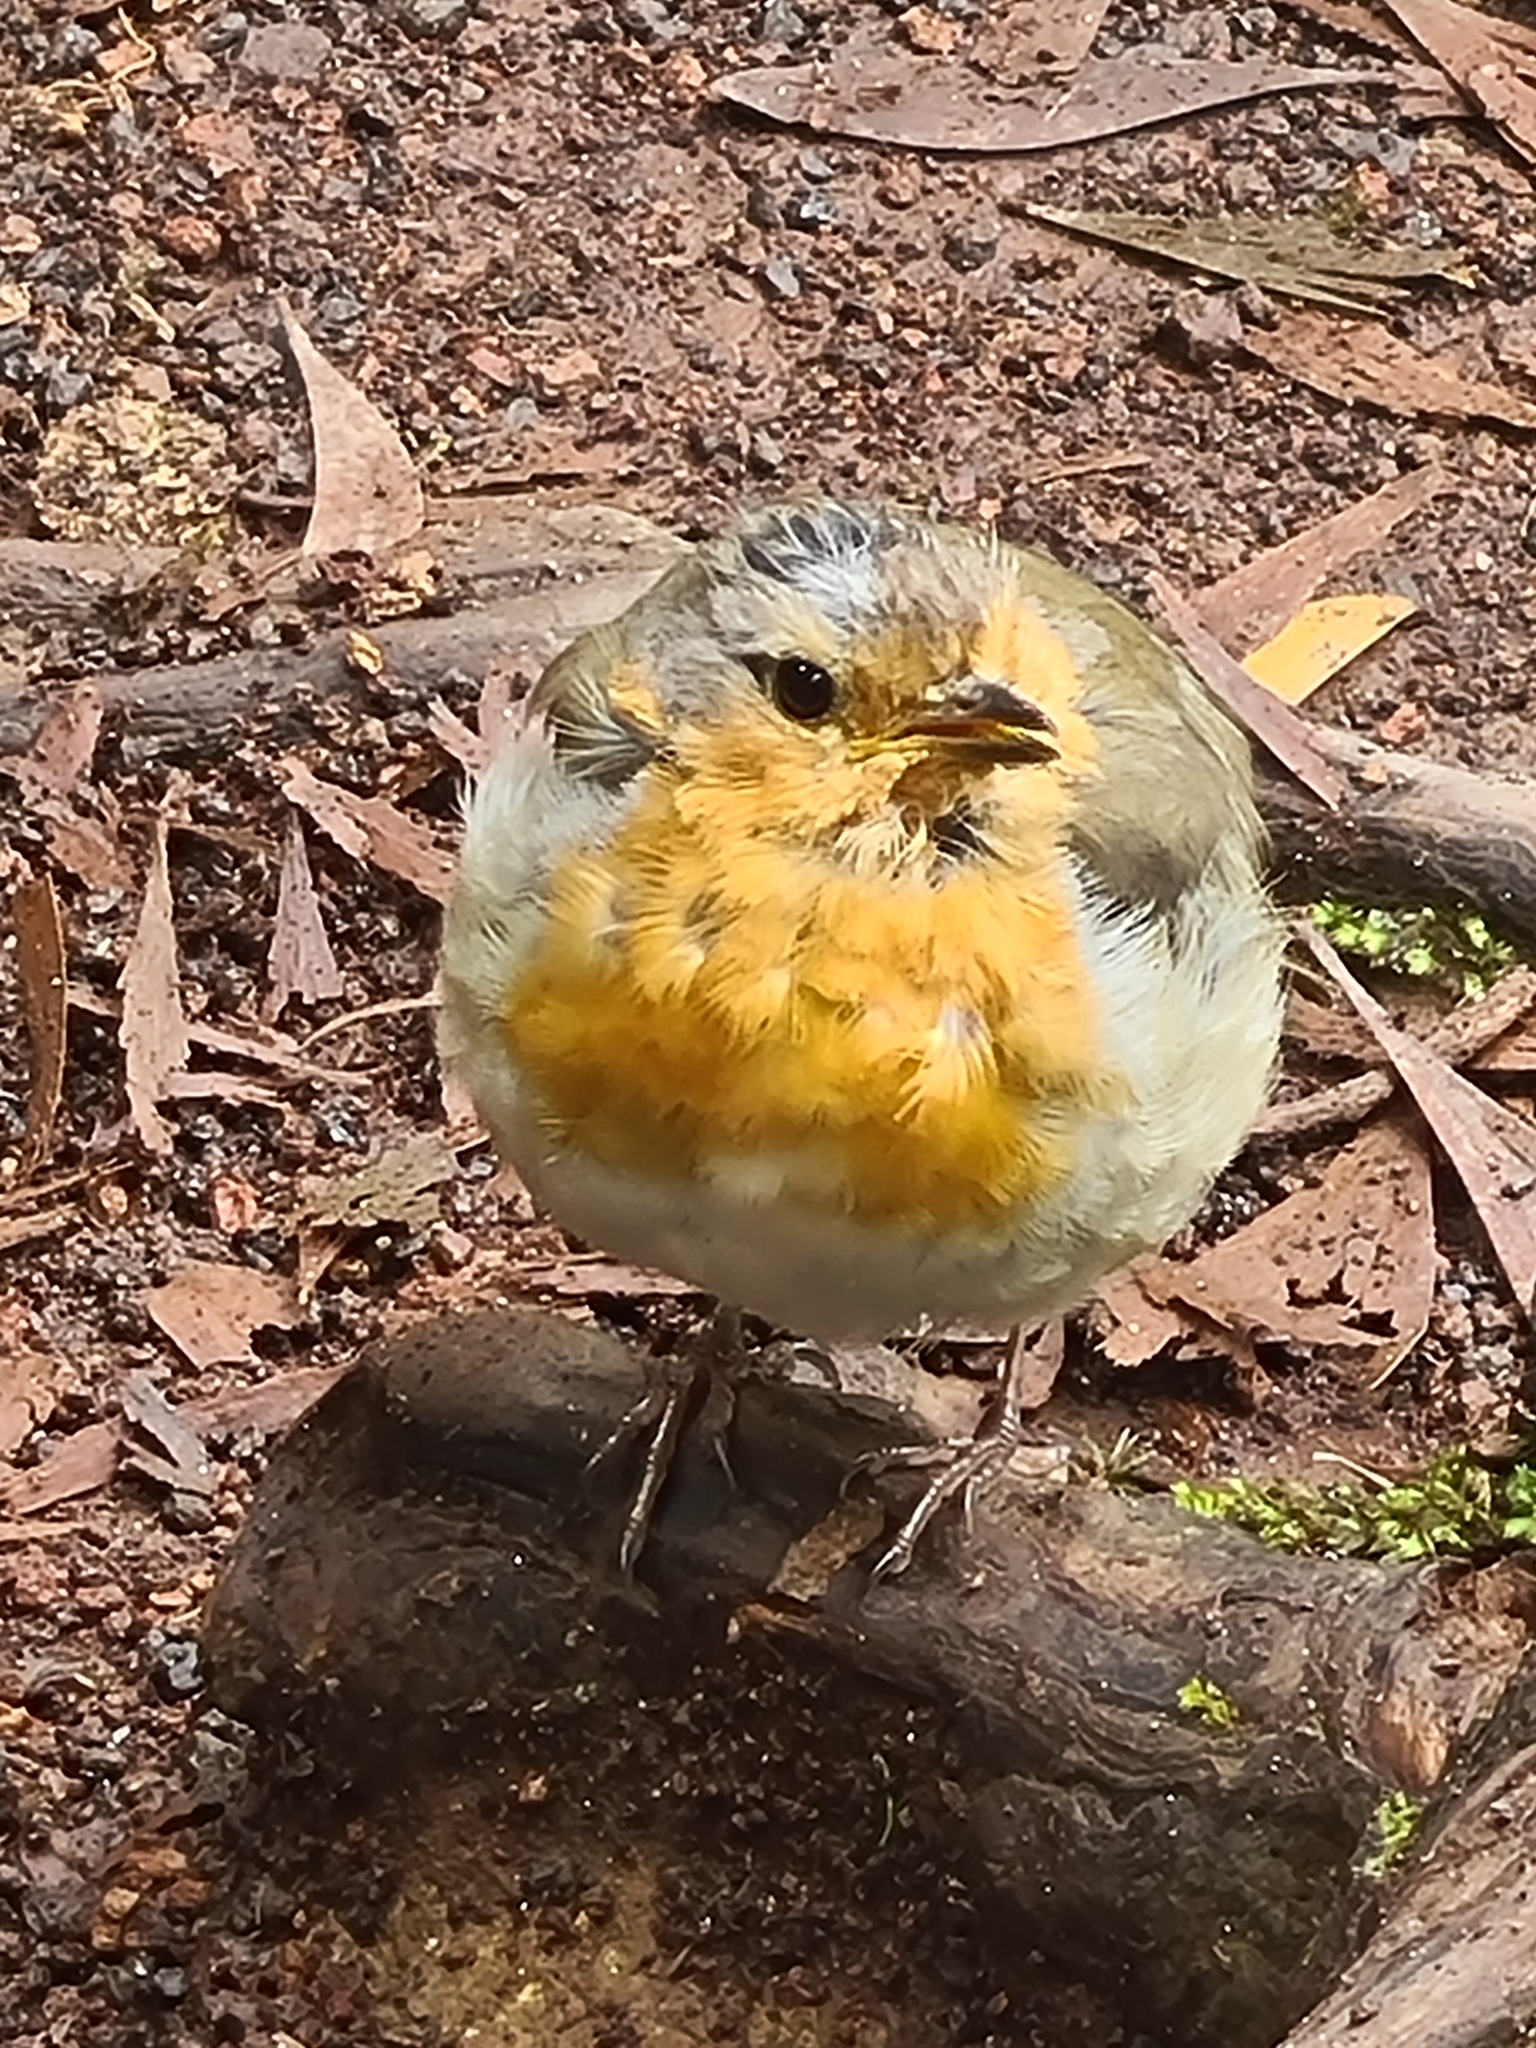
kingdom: Animalia
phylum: Chordata
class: Aves
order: Passeriformes
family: Muscicapidae
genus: Erithacus
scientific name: Erithacus rubecula
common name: European robin
